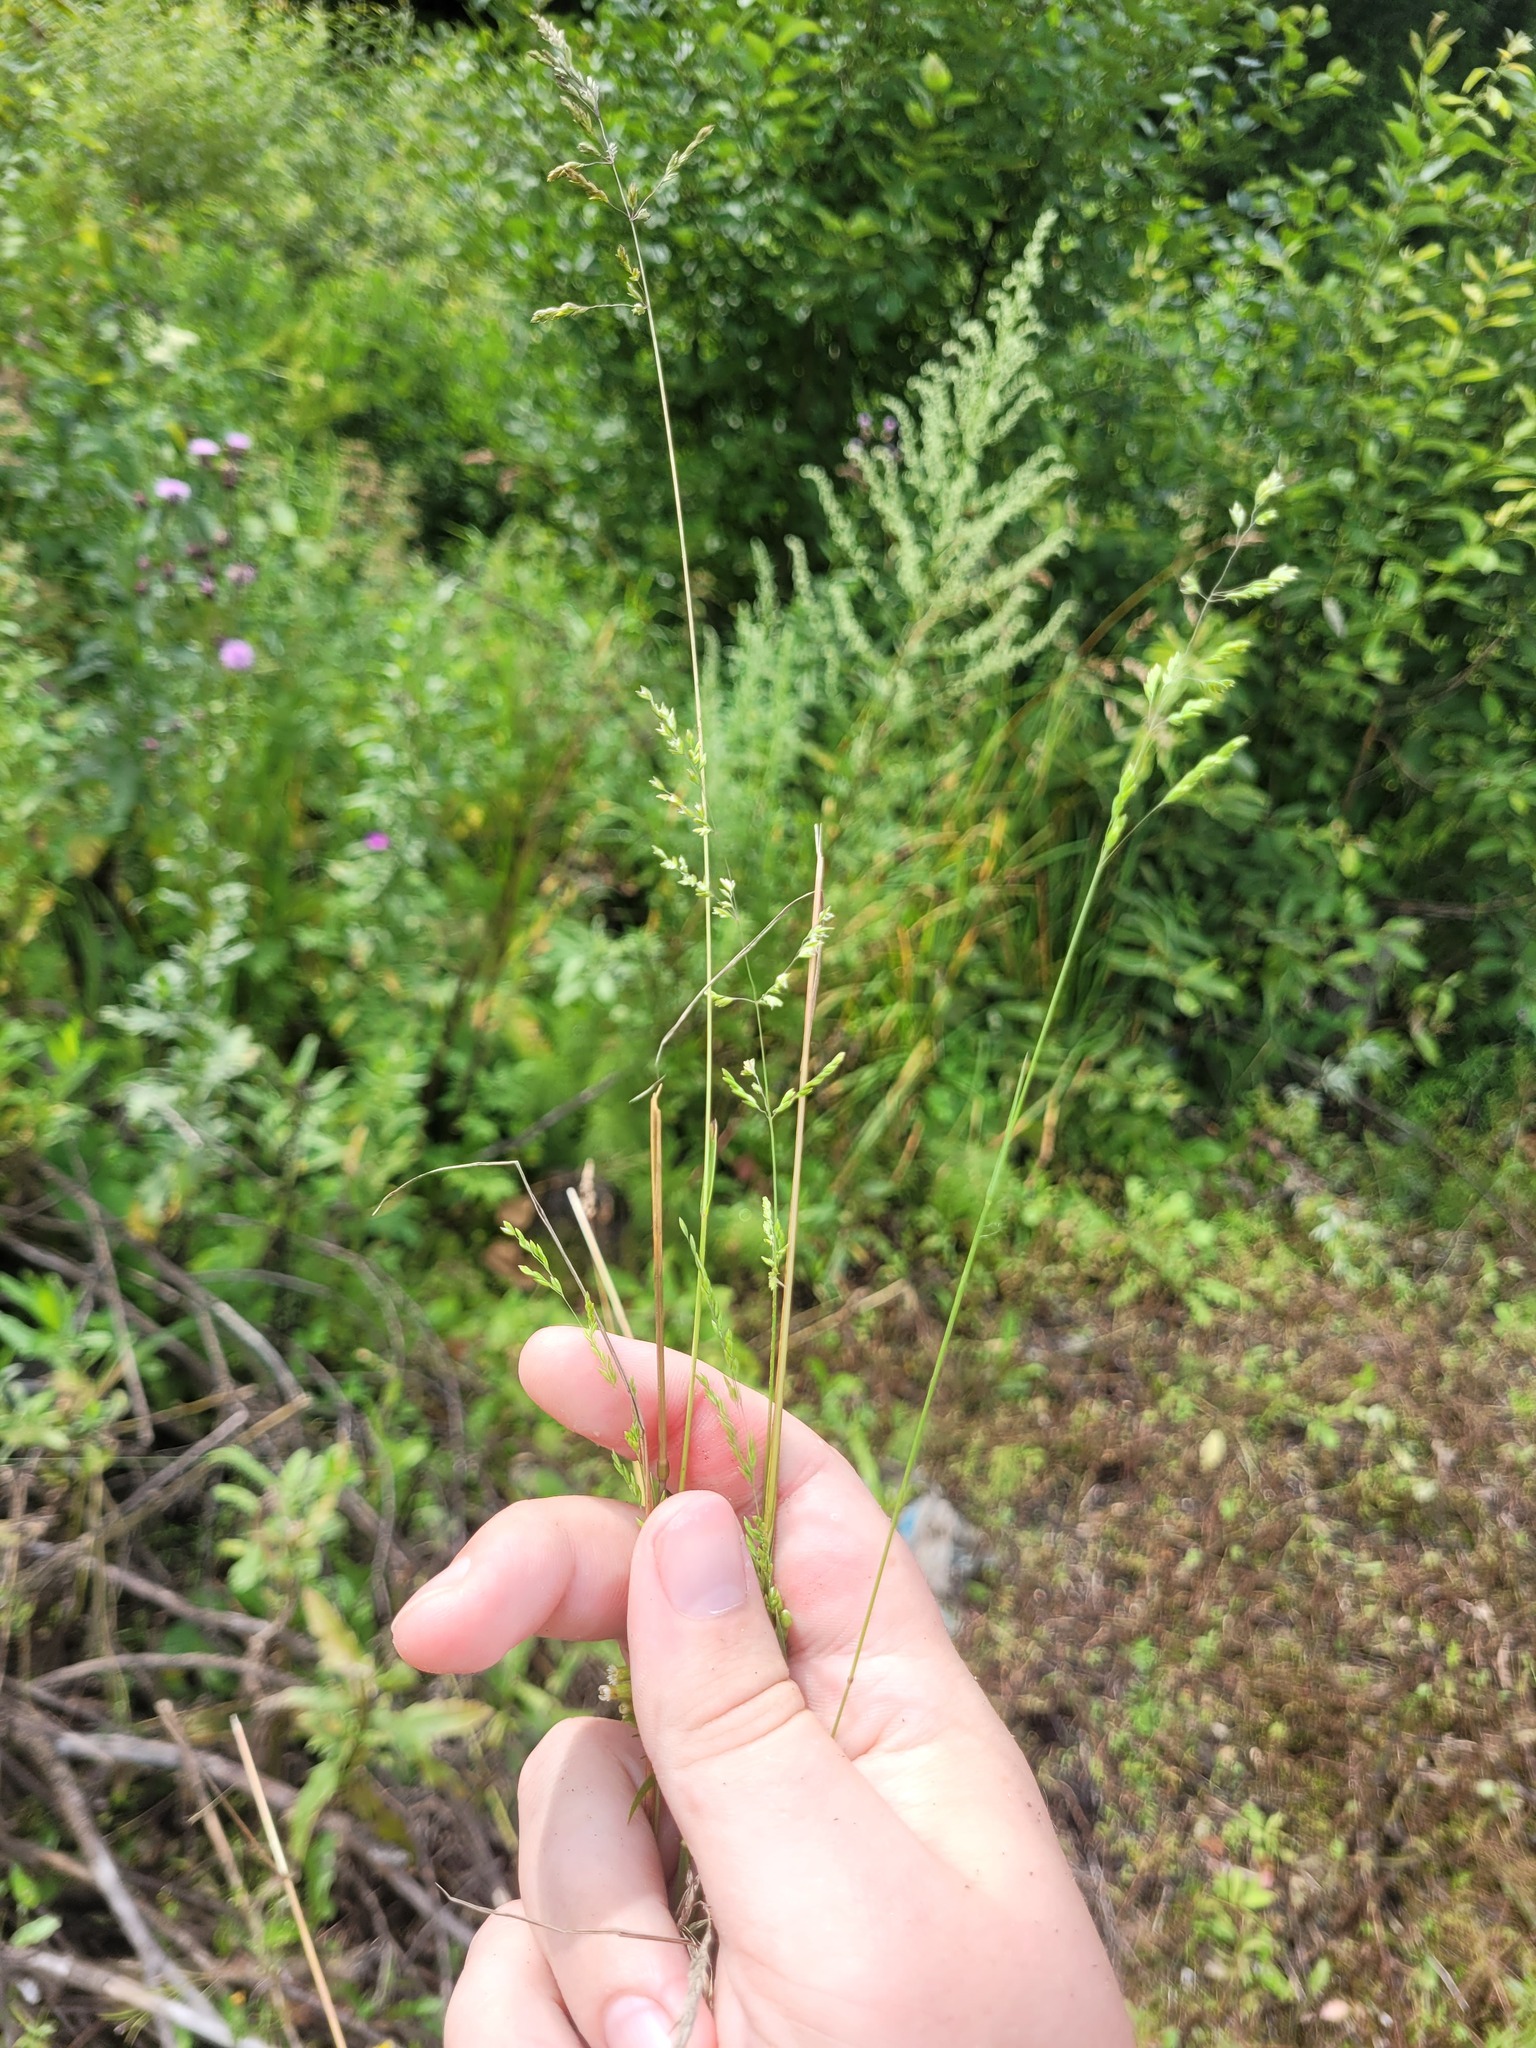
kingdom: Plantae
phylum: Tracheophyta
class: Liliopsida
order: Poales
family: Poaceae
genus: Poa
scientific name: Poa trivialis
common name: Rough bluegrass
